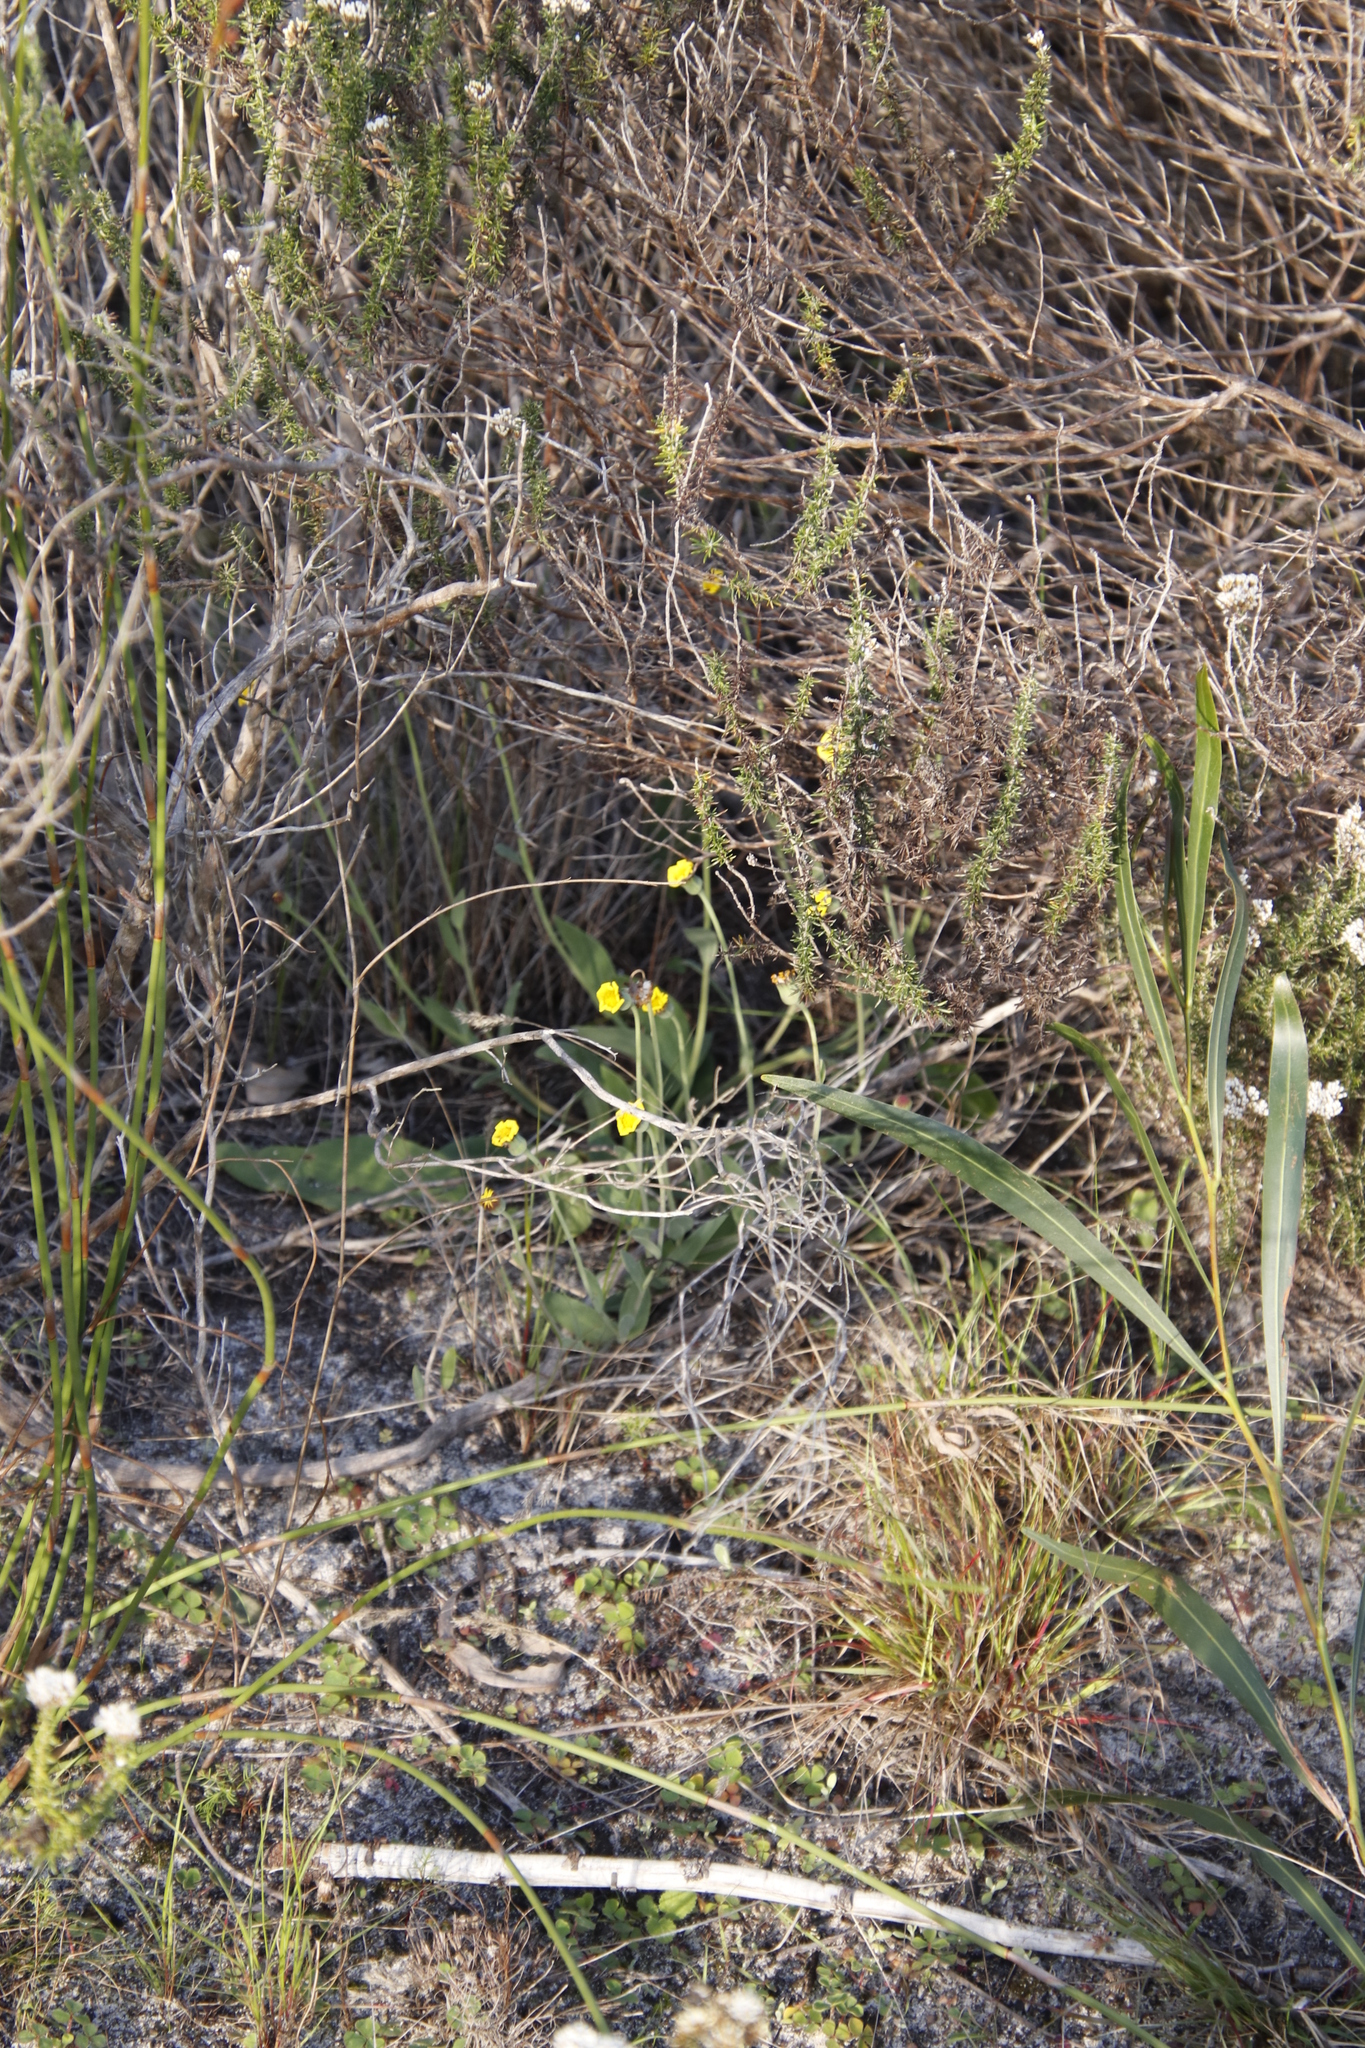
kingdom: Plantae
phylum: Tracheophyta
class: Magnoliopsida
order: Asterales
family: Asteraceae
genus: Othonna
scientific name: Othonna bulbosa
